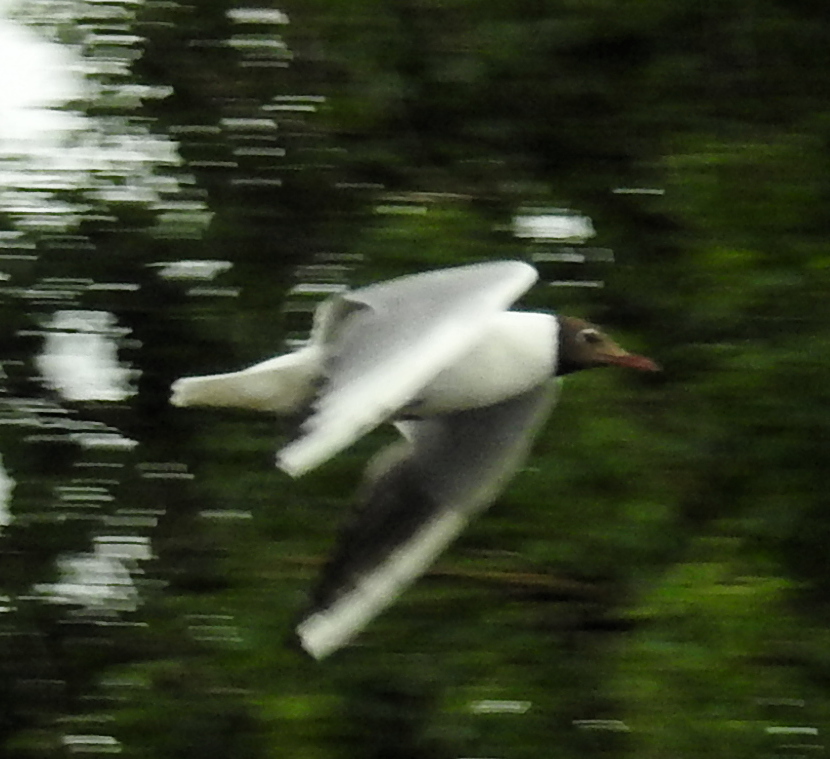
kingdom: Animalia
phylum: Chordata
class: Aves
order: Charadriiformes
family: Laridae
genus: Chroicocephalus
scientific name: Chroicocephalus ridibundus
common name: Black-headed gull
